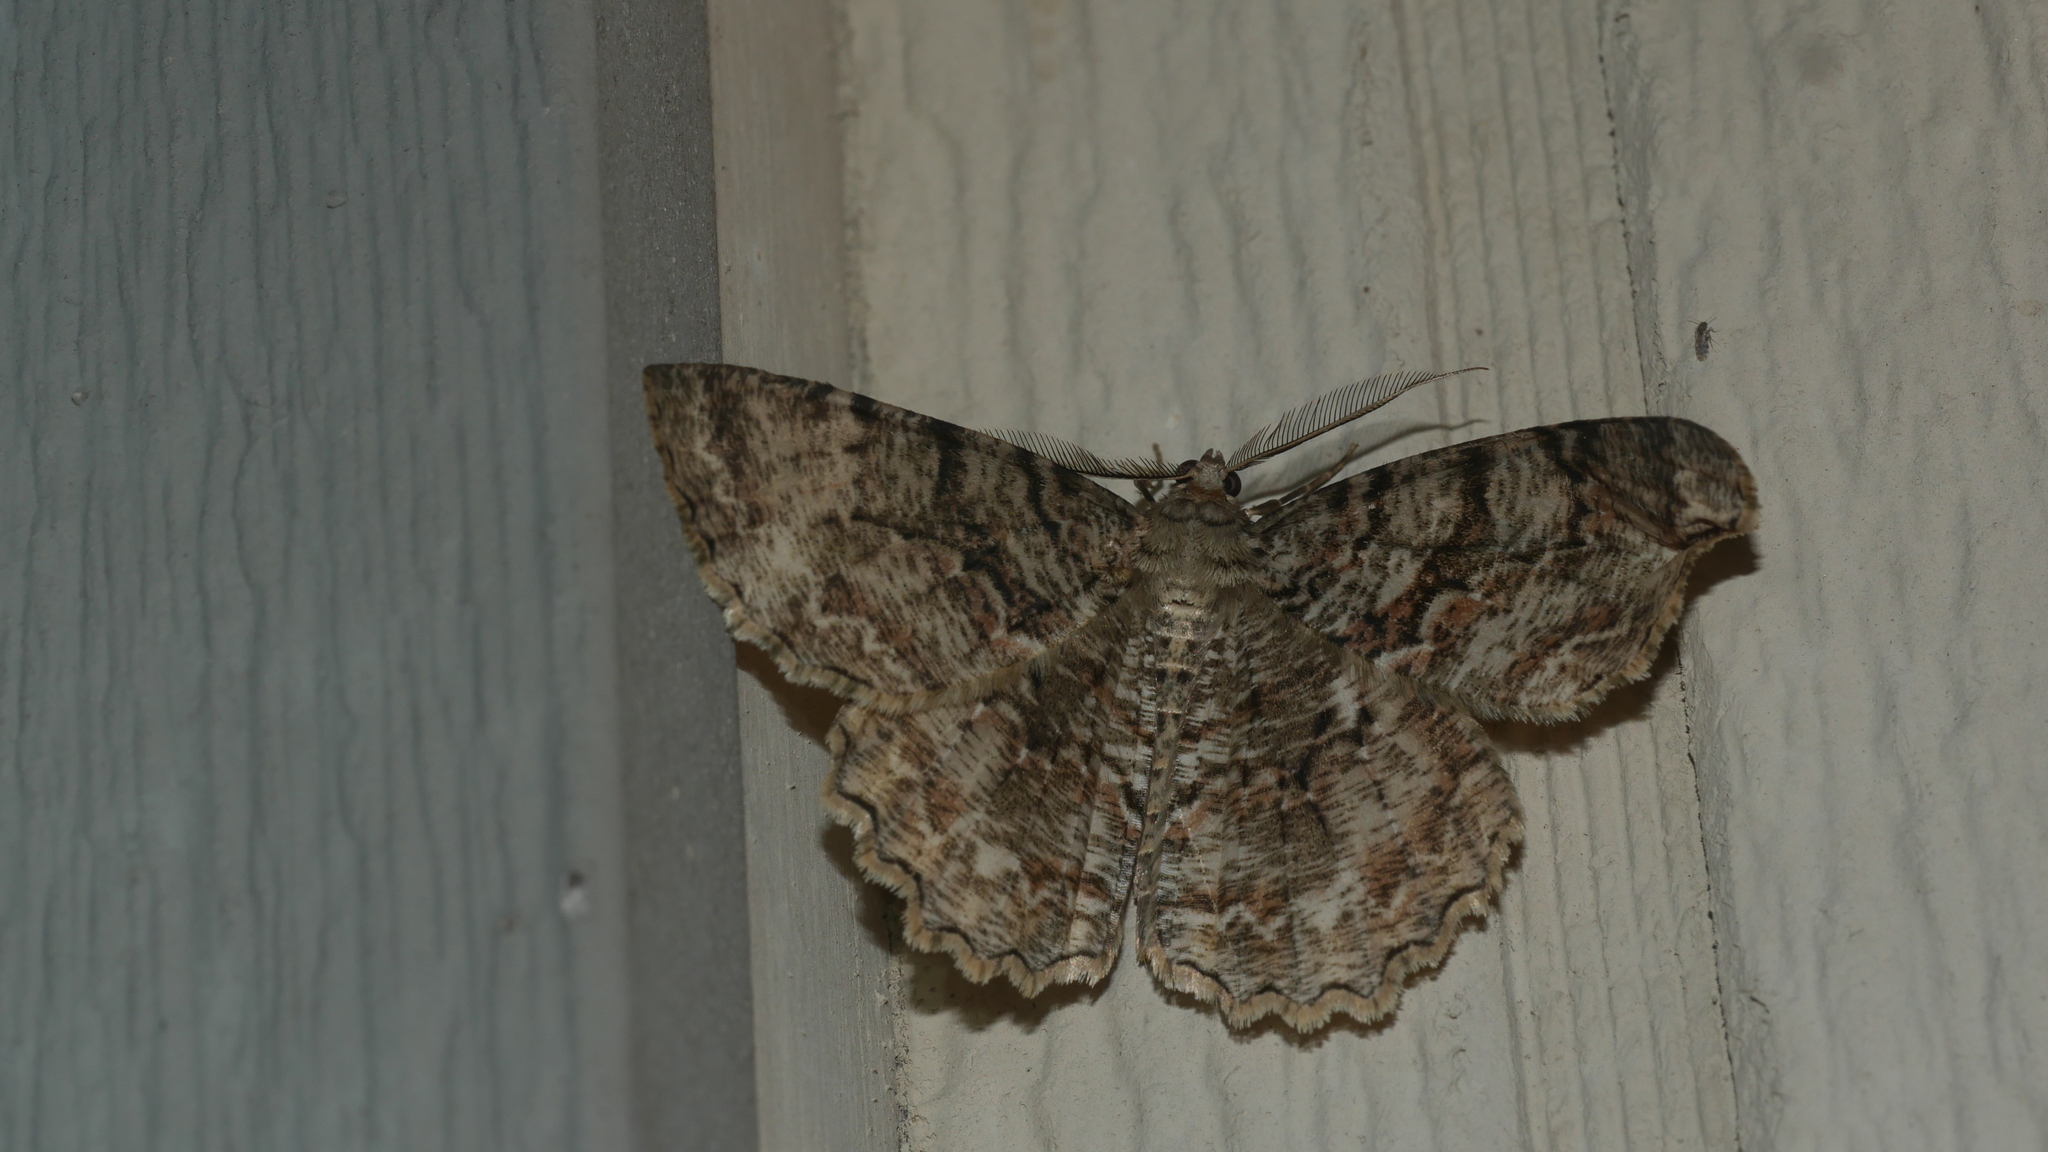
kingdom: Animalia
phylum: Arthropoda
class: Insecta
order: Lepidoptera
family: Geometridae
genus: Epimecis
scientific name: Epimecis hortaria
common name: Tulip-tree beauty
